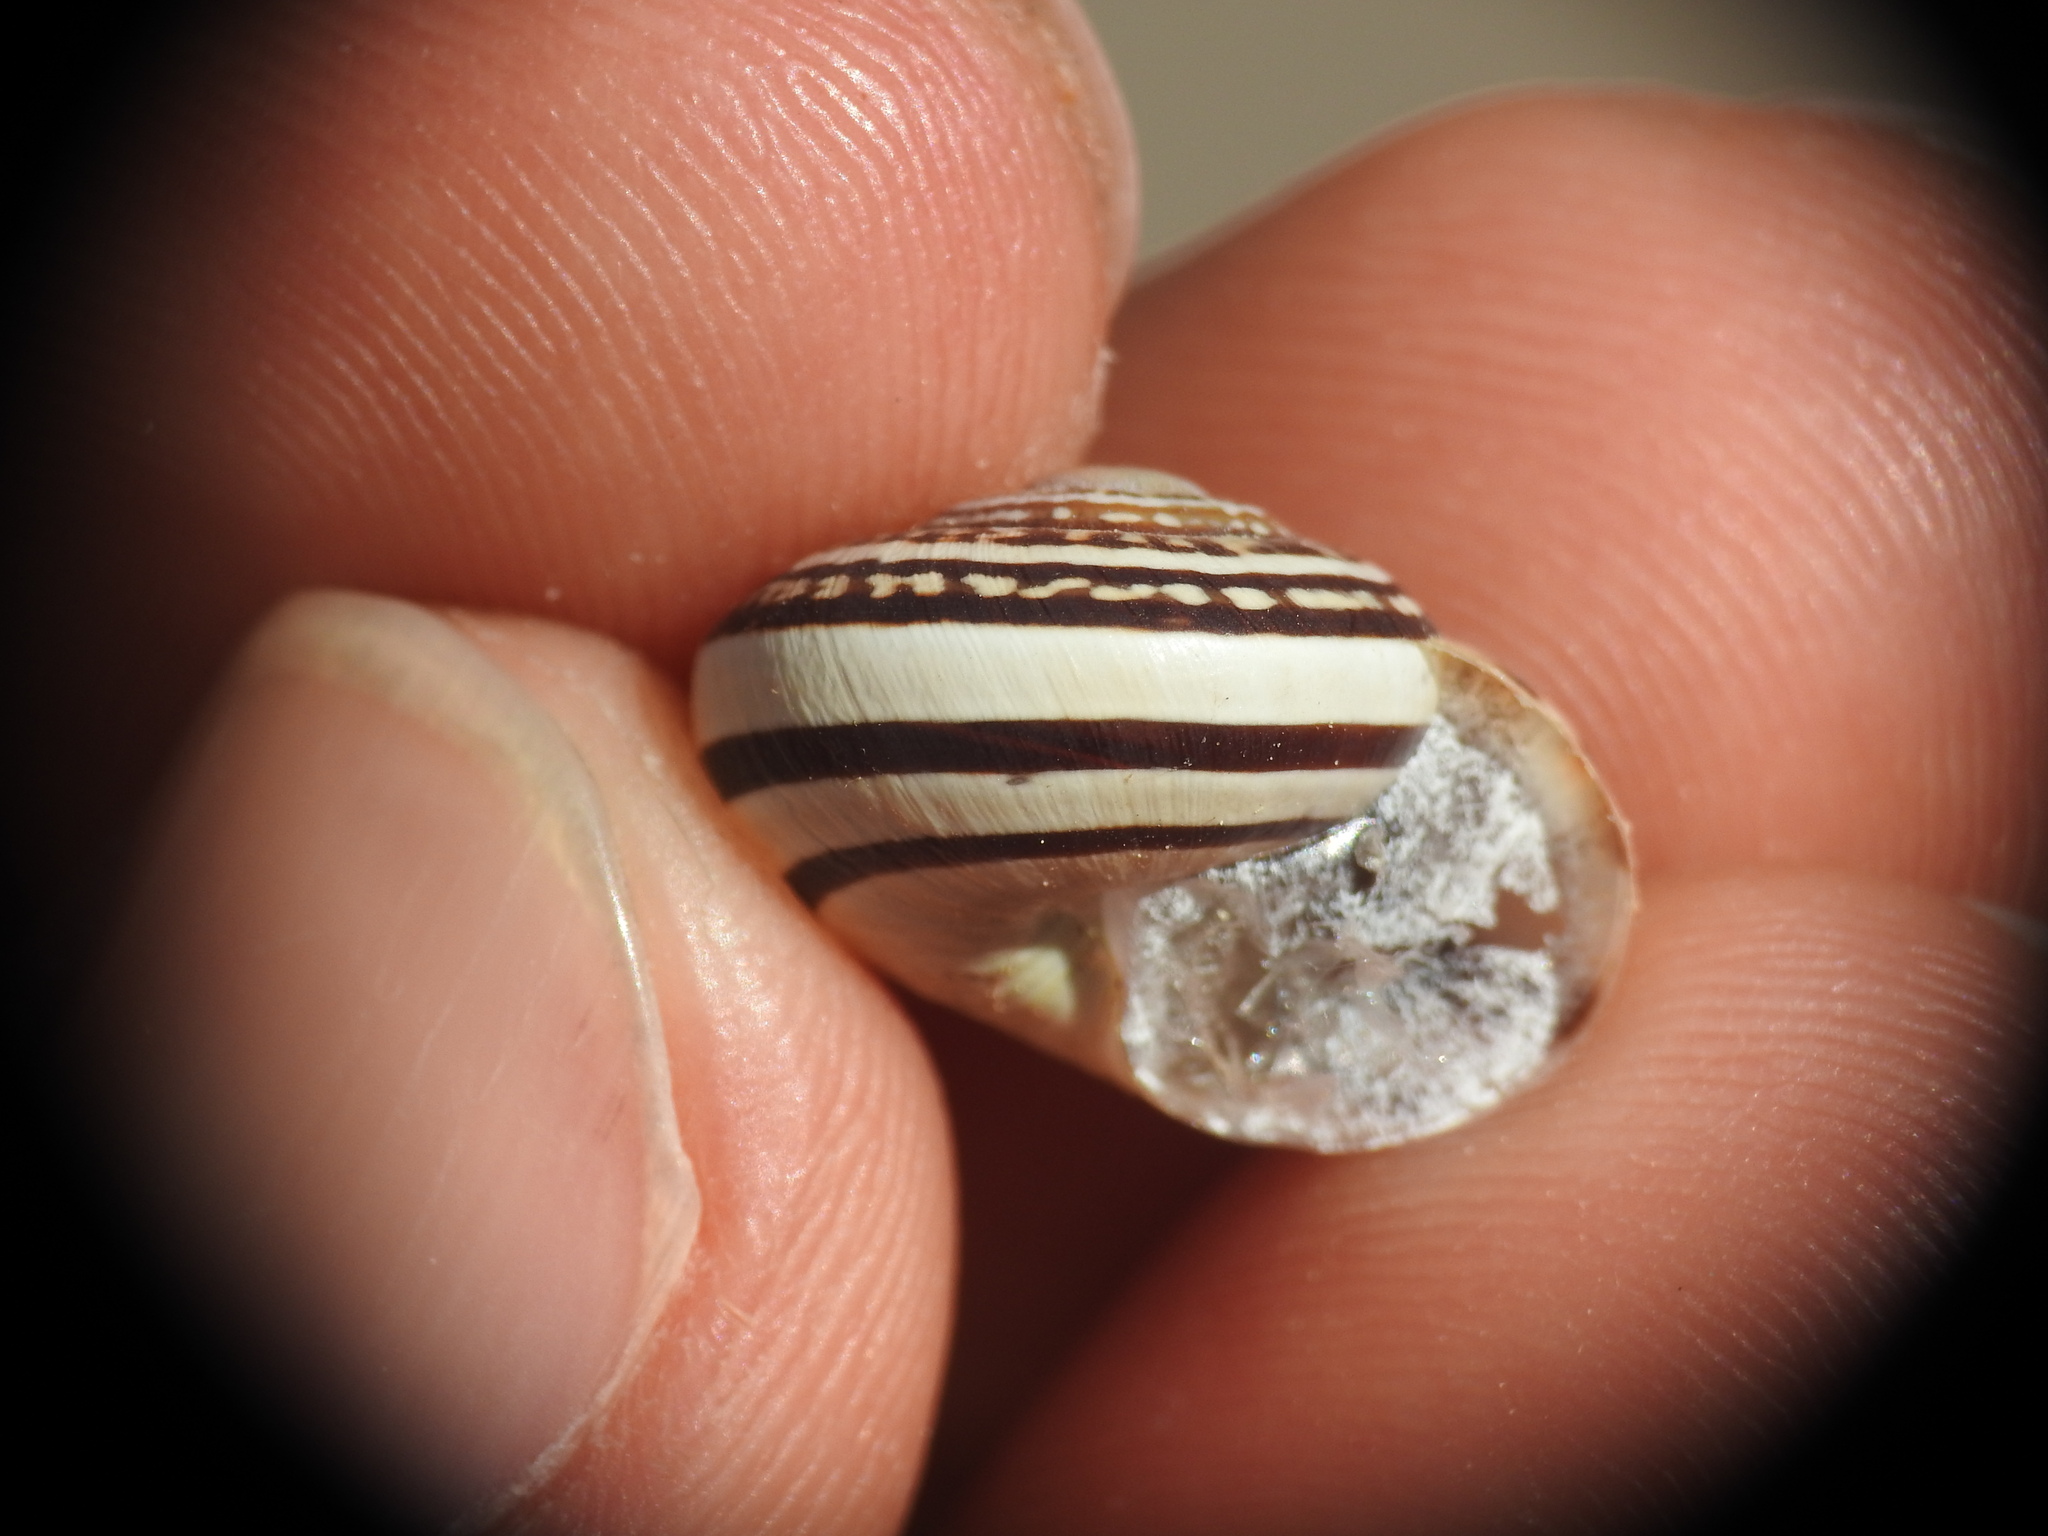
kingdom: Animalia
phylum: Mollusca
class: Gastropoda
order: Stylommatophora
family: Helicidae
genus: Eobania
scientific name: Eobania vermiculata
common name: Chocolateband snail
